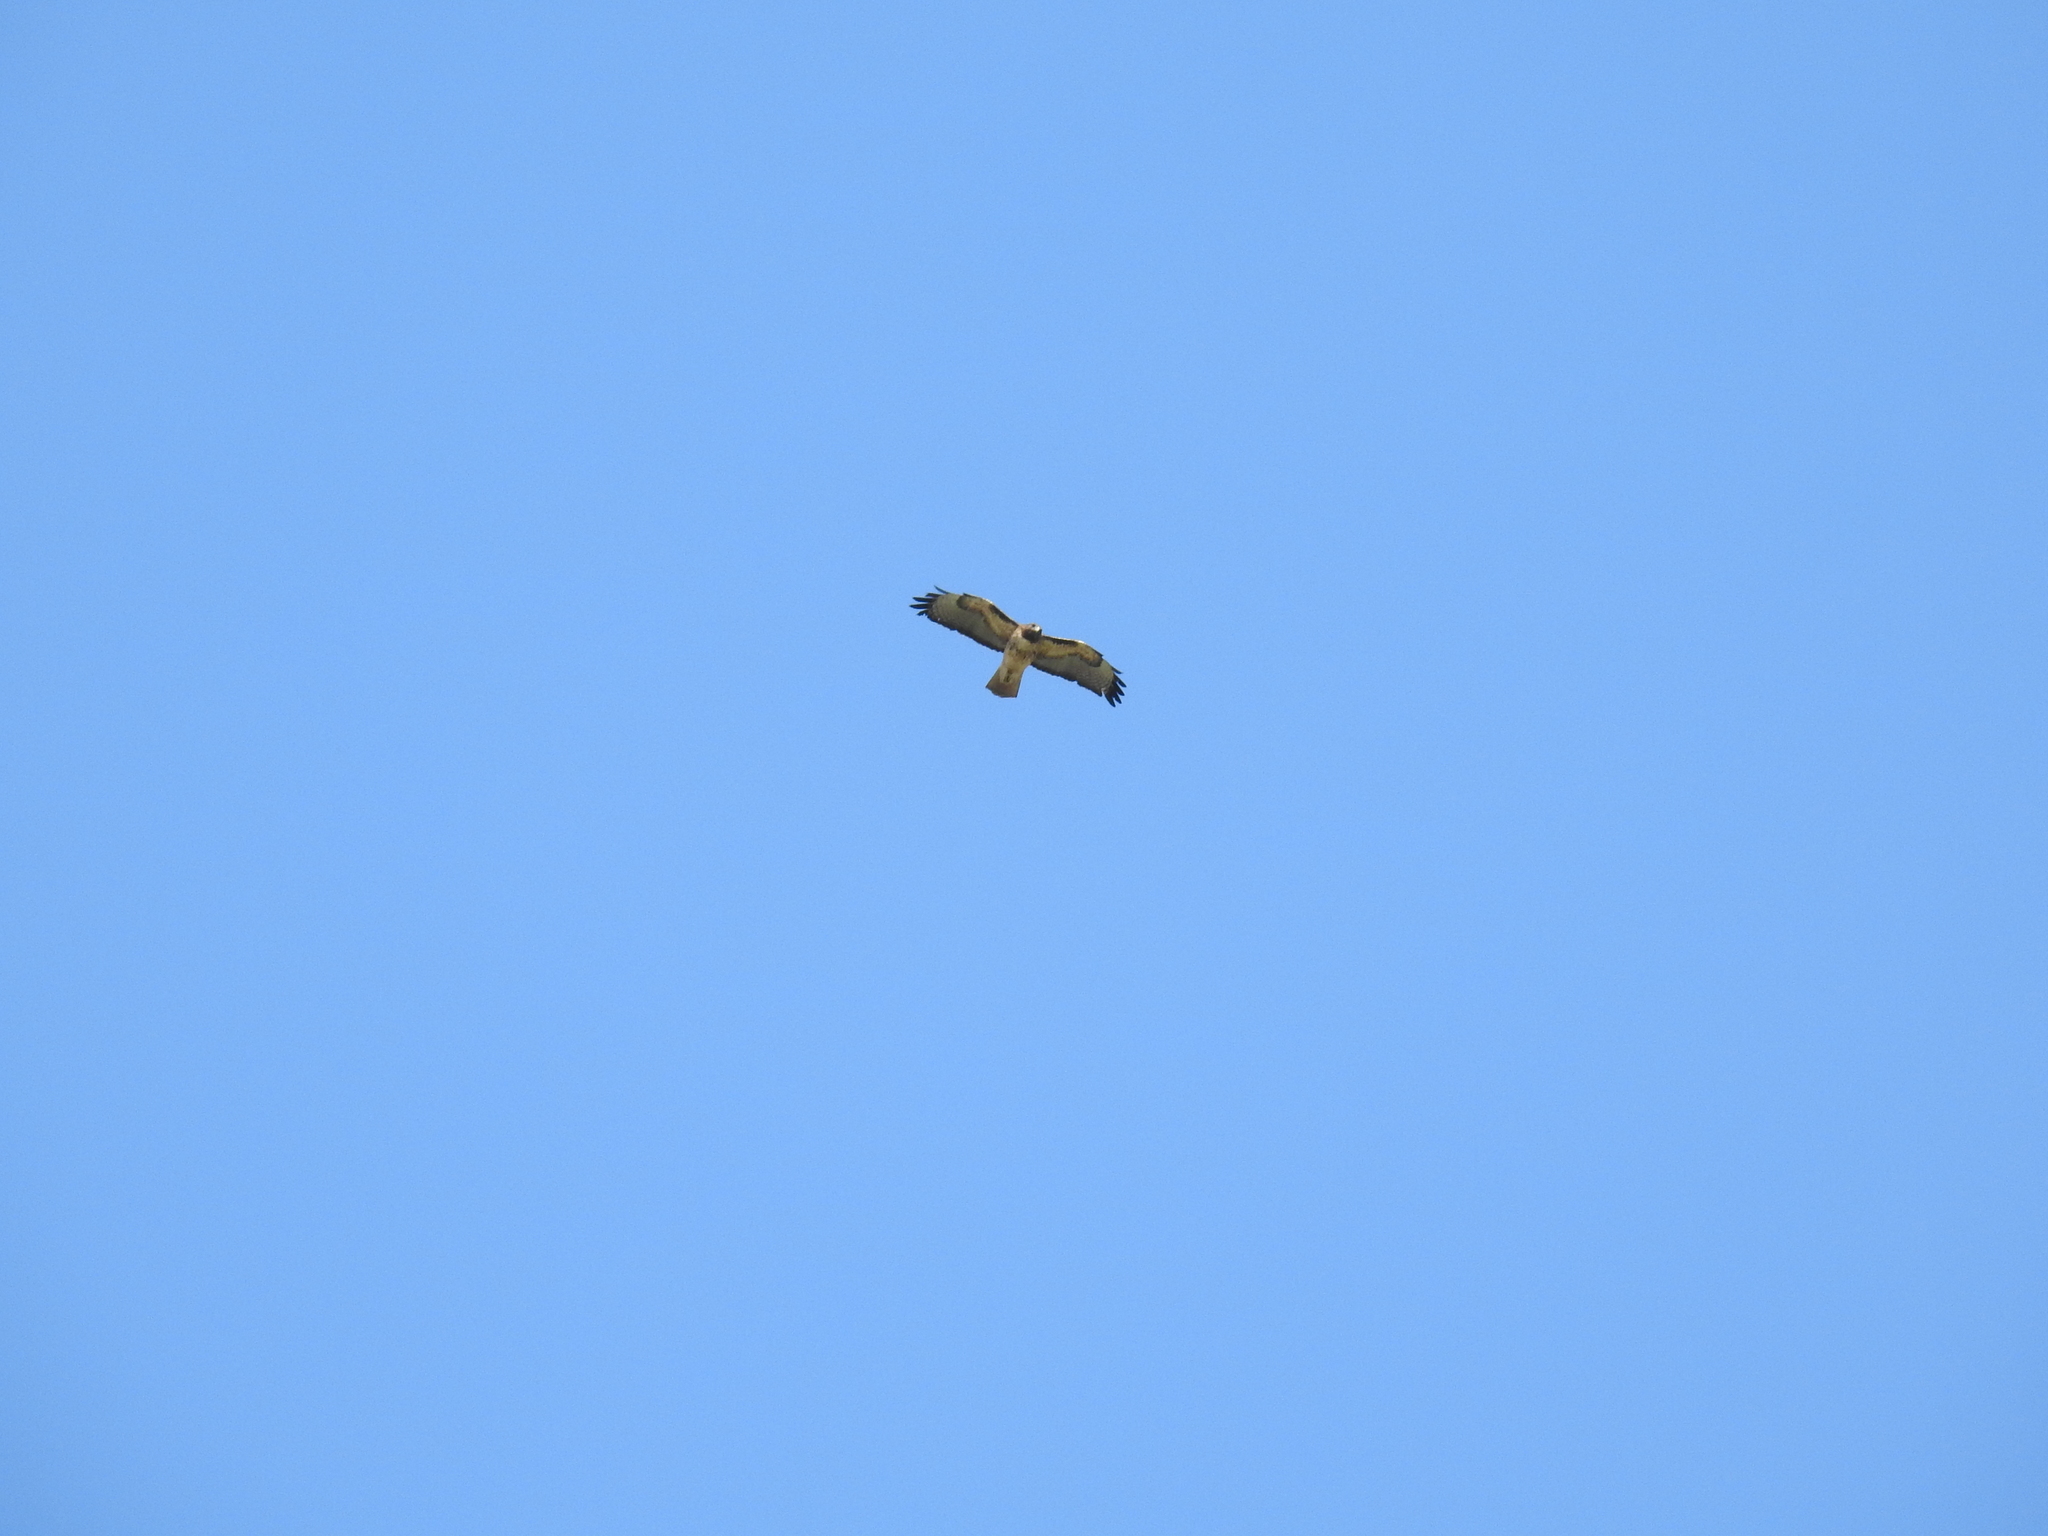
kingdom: Animalia
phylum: Chordata
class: Aves
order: Accipitriformes
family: Accipitridae
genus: Buteo
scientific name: Buteo jamaicensis
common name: Red-tailed hawk
